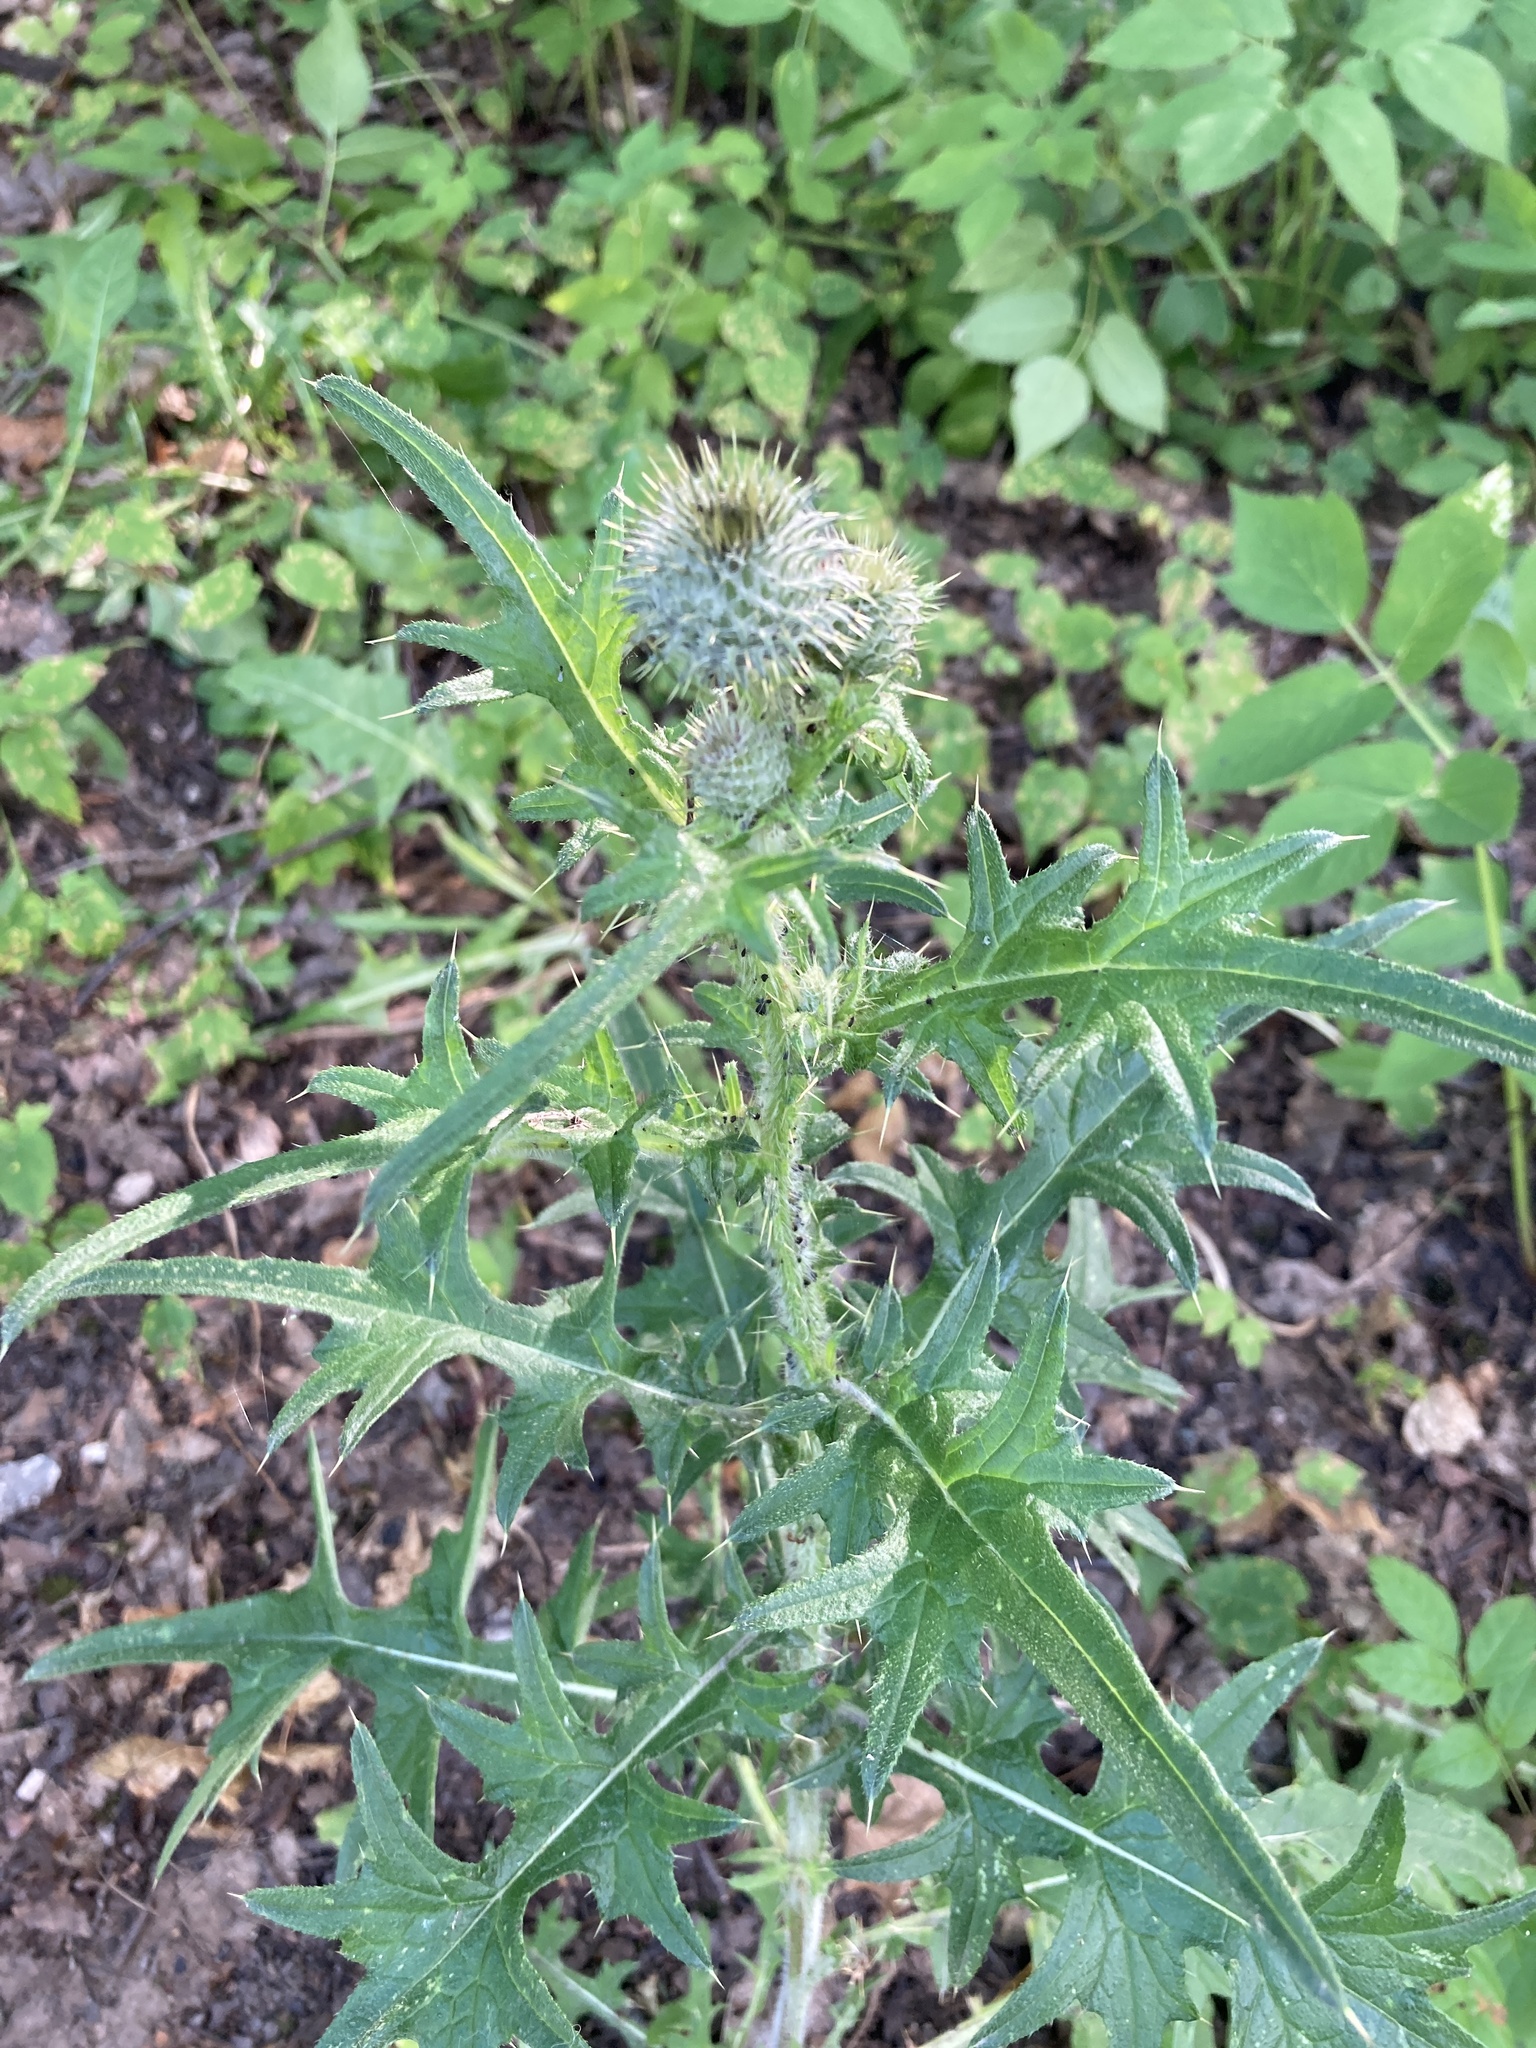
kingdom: Plantae
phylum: Tracheophyta
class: Magnoliopsida
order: Asterales
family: Asteraceae
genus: Cirsium
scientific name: Cirsium vulgare
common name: Bull thistle
